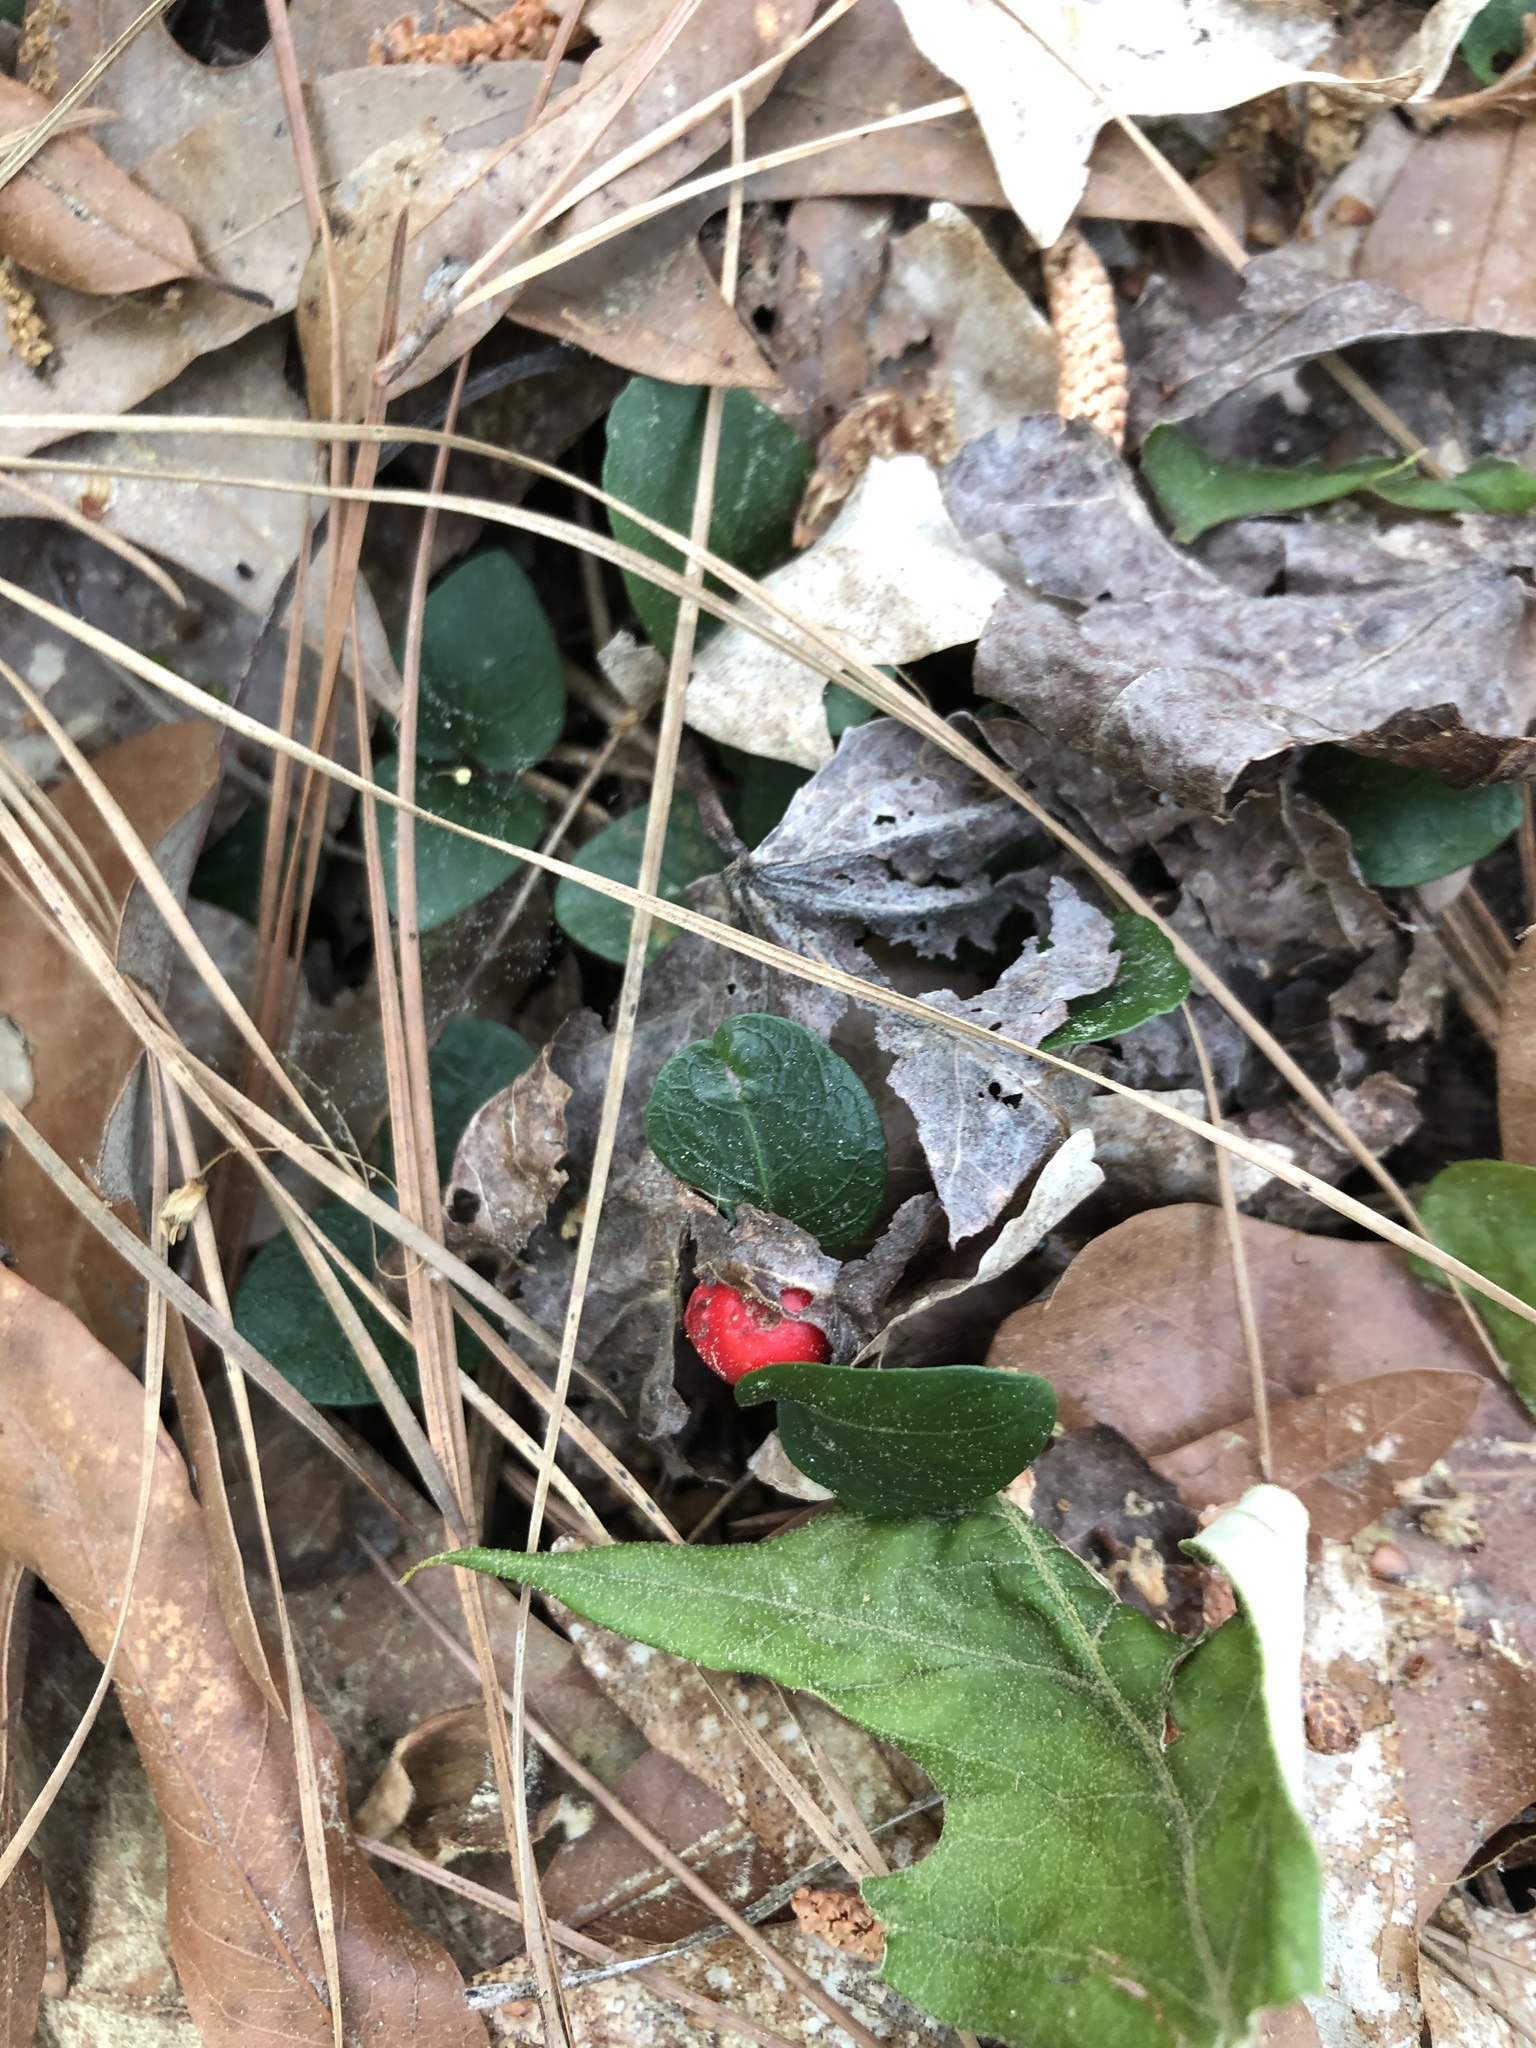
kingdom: Plantae
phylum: Tracheophyta
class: Magnoliopsida
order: Gentianales
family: Rubiaceae
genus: Mitchella
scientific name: Mitchella repens
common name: Partridge-berry
